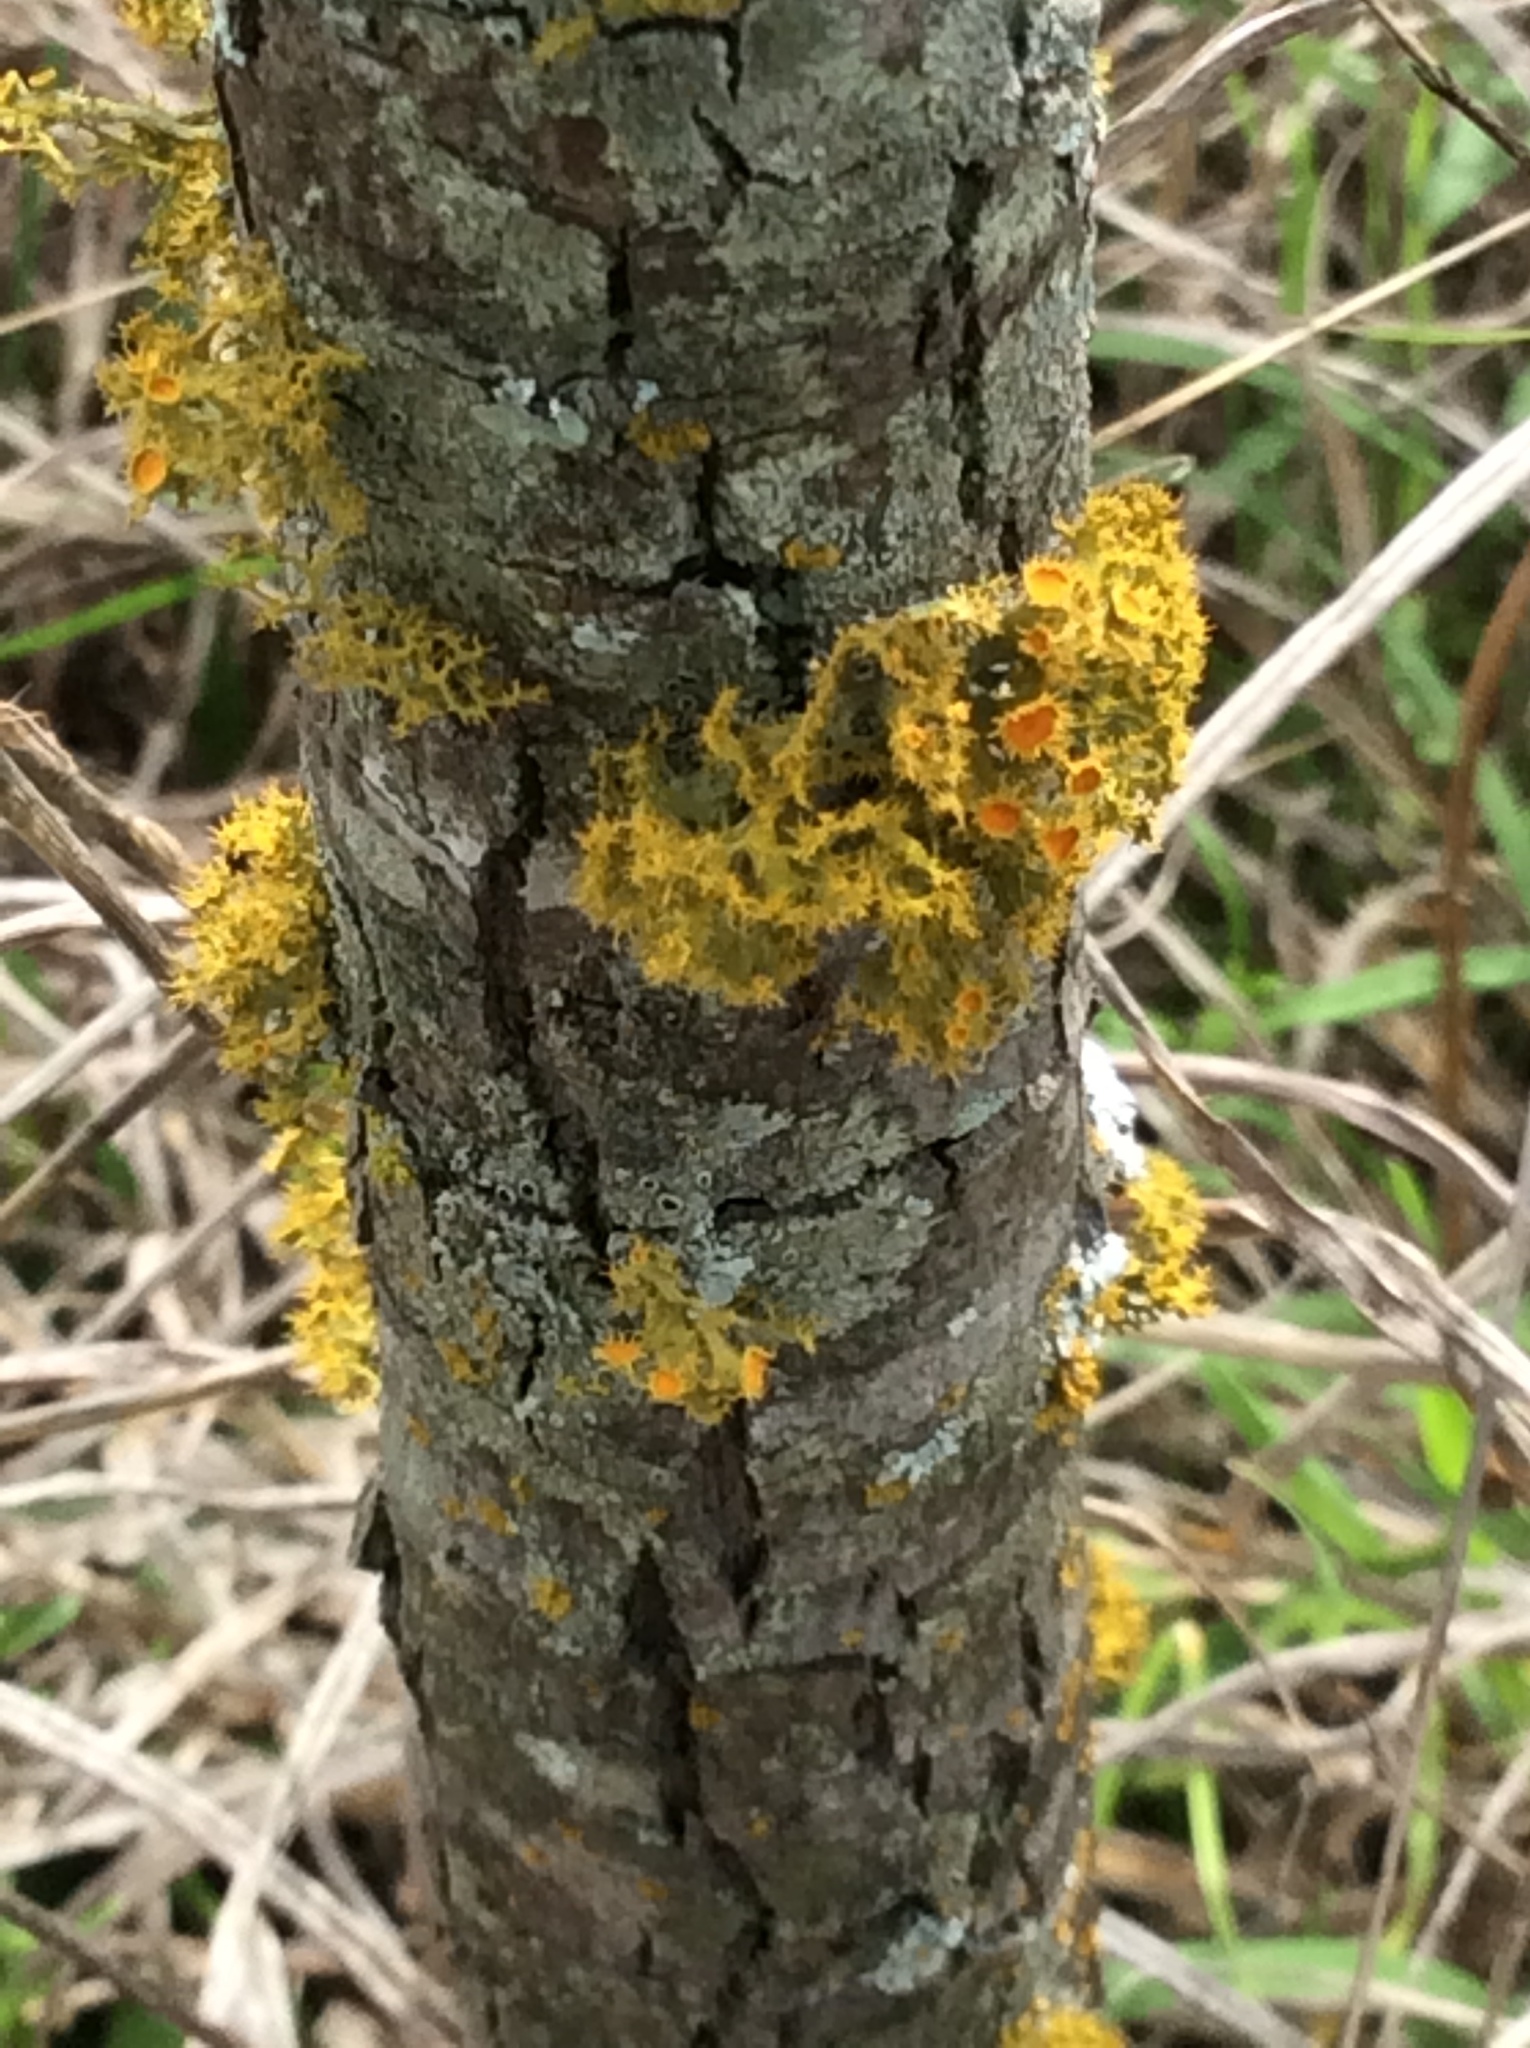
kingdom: Fungi
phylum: Ascomycota
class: Lecanoromycetes
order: Teloschistales
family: Teloschistaceae
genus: Niorma
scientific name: Niorma chrysophthalma
